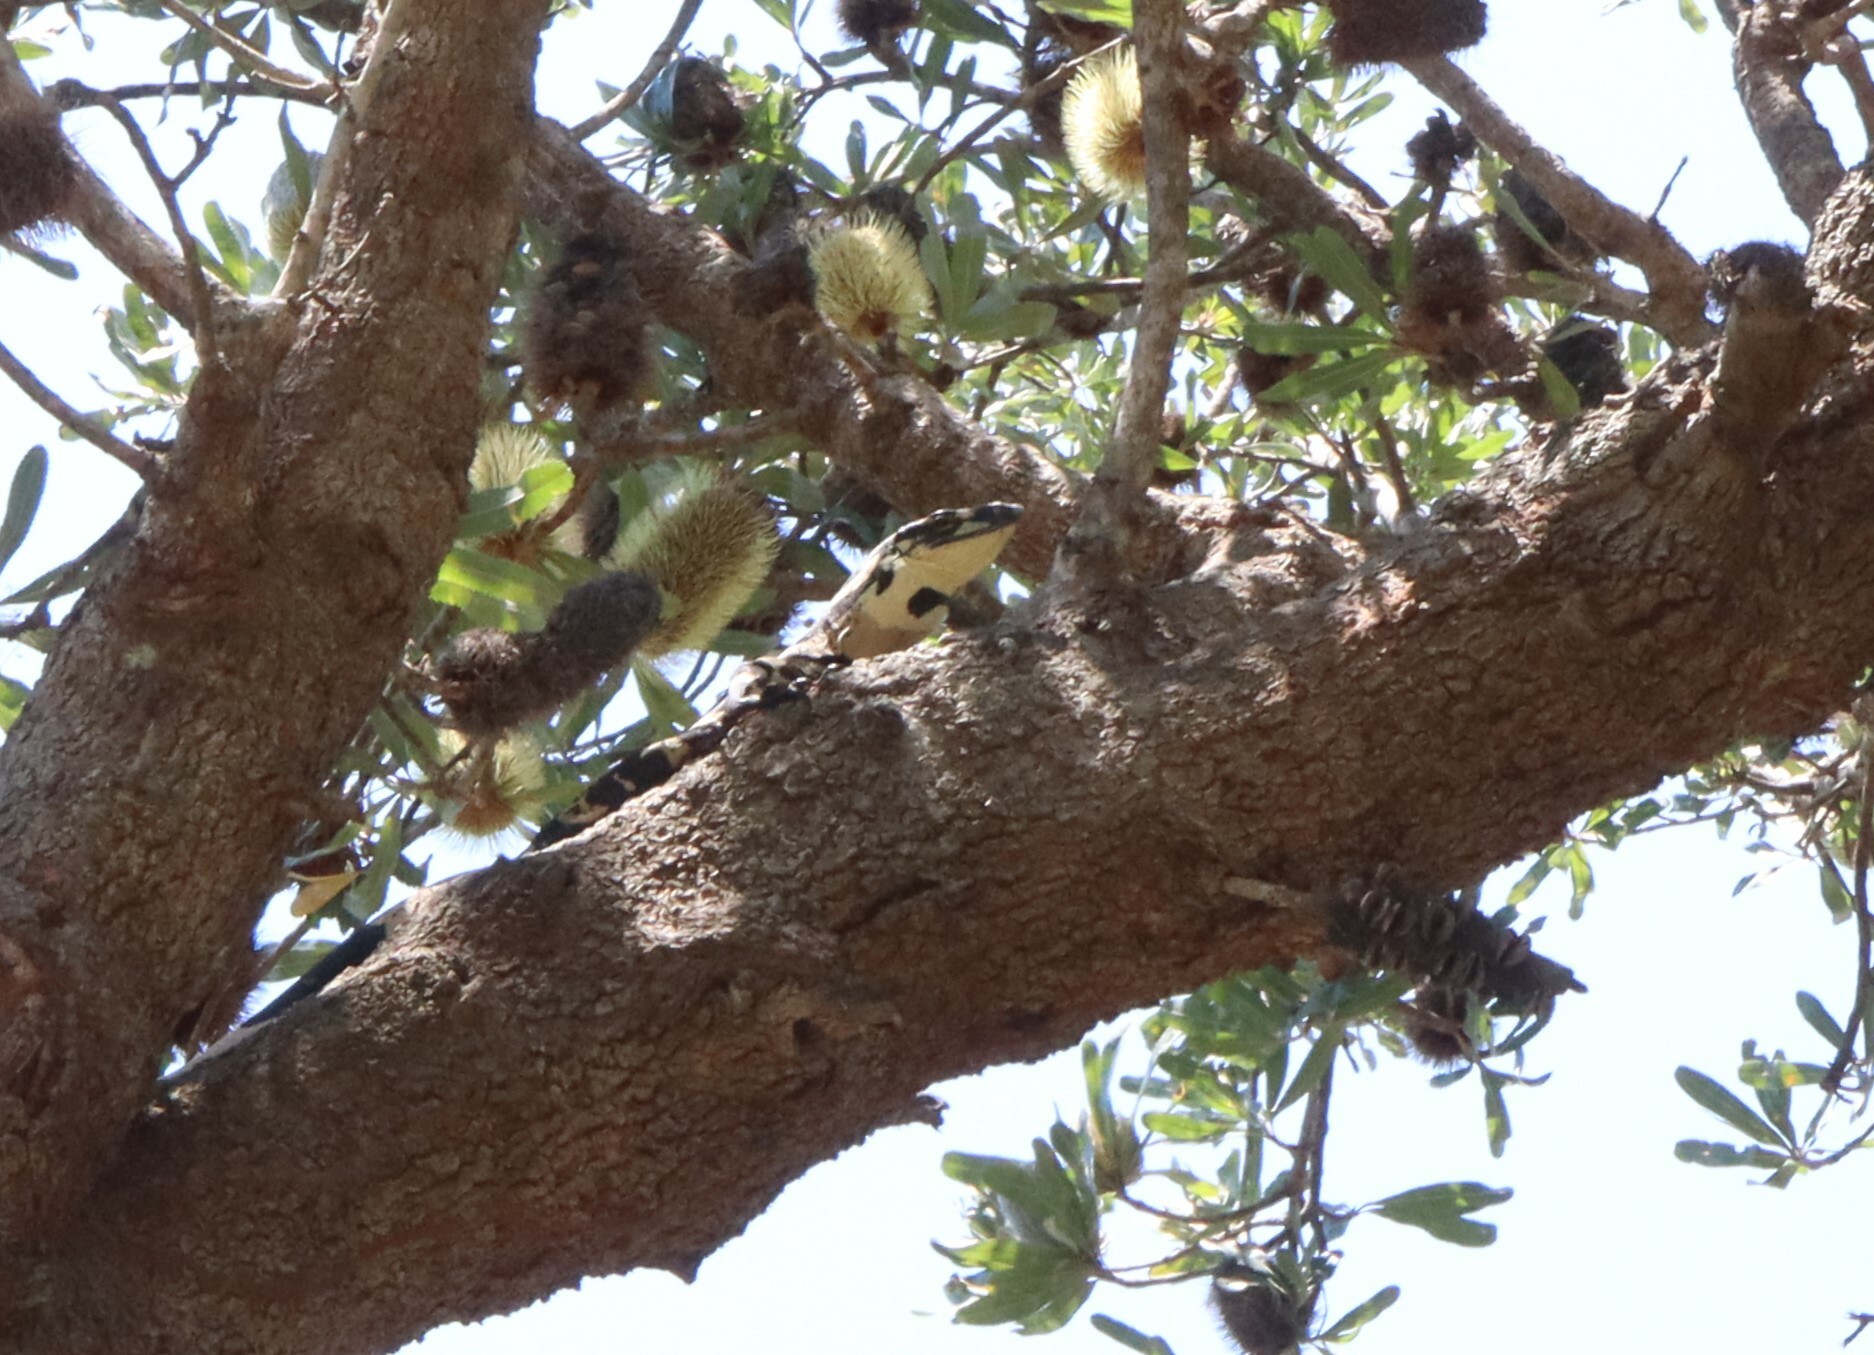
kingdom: Animalia
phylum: Chordata
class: Squamata
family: Varanidae
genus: Varanus
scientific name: Varanus varius
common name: Lace monitor
